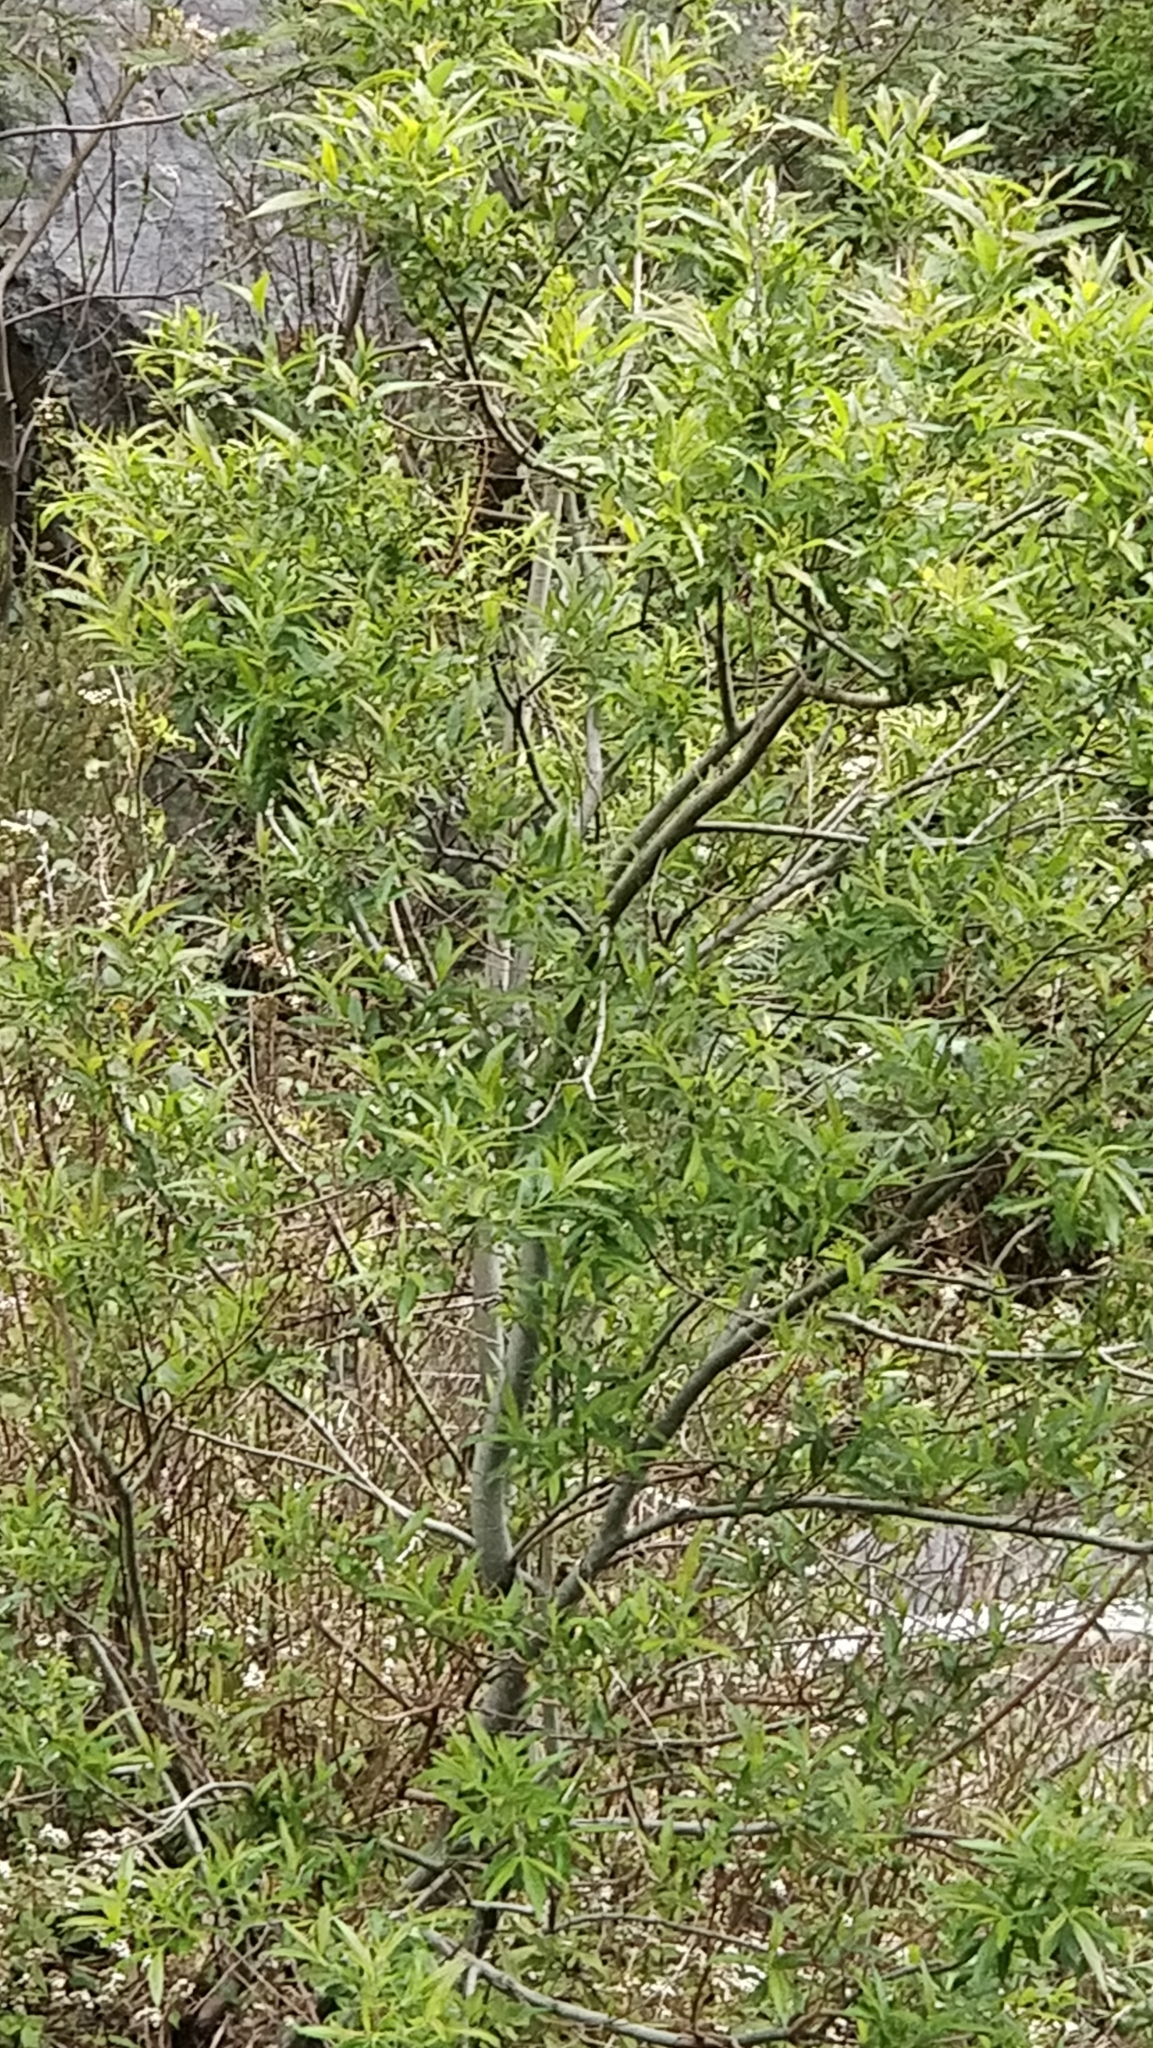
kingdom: Plantae
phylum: Tracheophyta
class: Magnoliopsida
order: Malpighiales
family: Salicaceae
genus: Salix
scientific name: Salix canariensis
